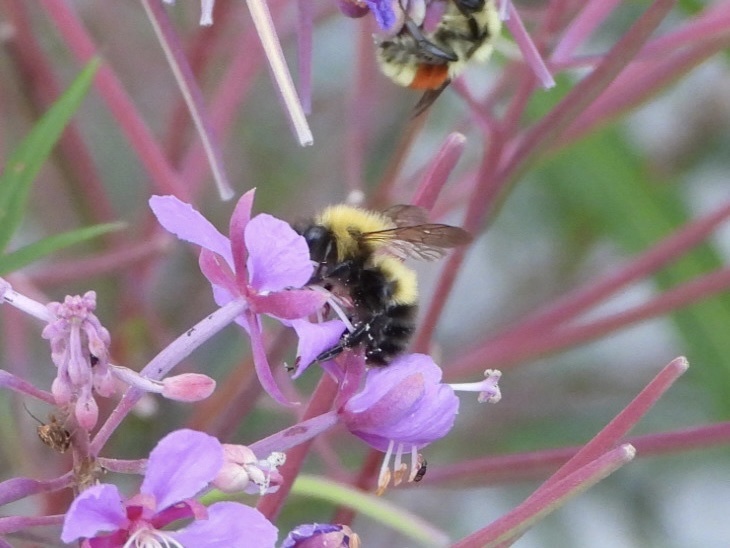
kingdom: Animalia
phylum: Arthropoda
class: Insecta
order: Hymenoptera
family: Apidae
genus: Bombus
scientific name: Bombus perplexus
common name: Confusing bumble bee
